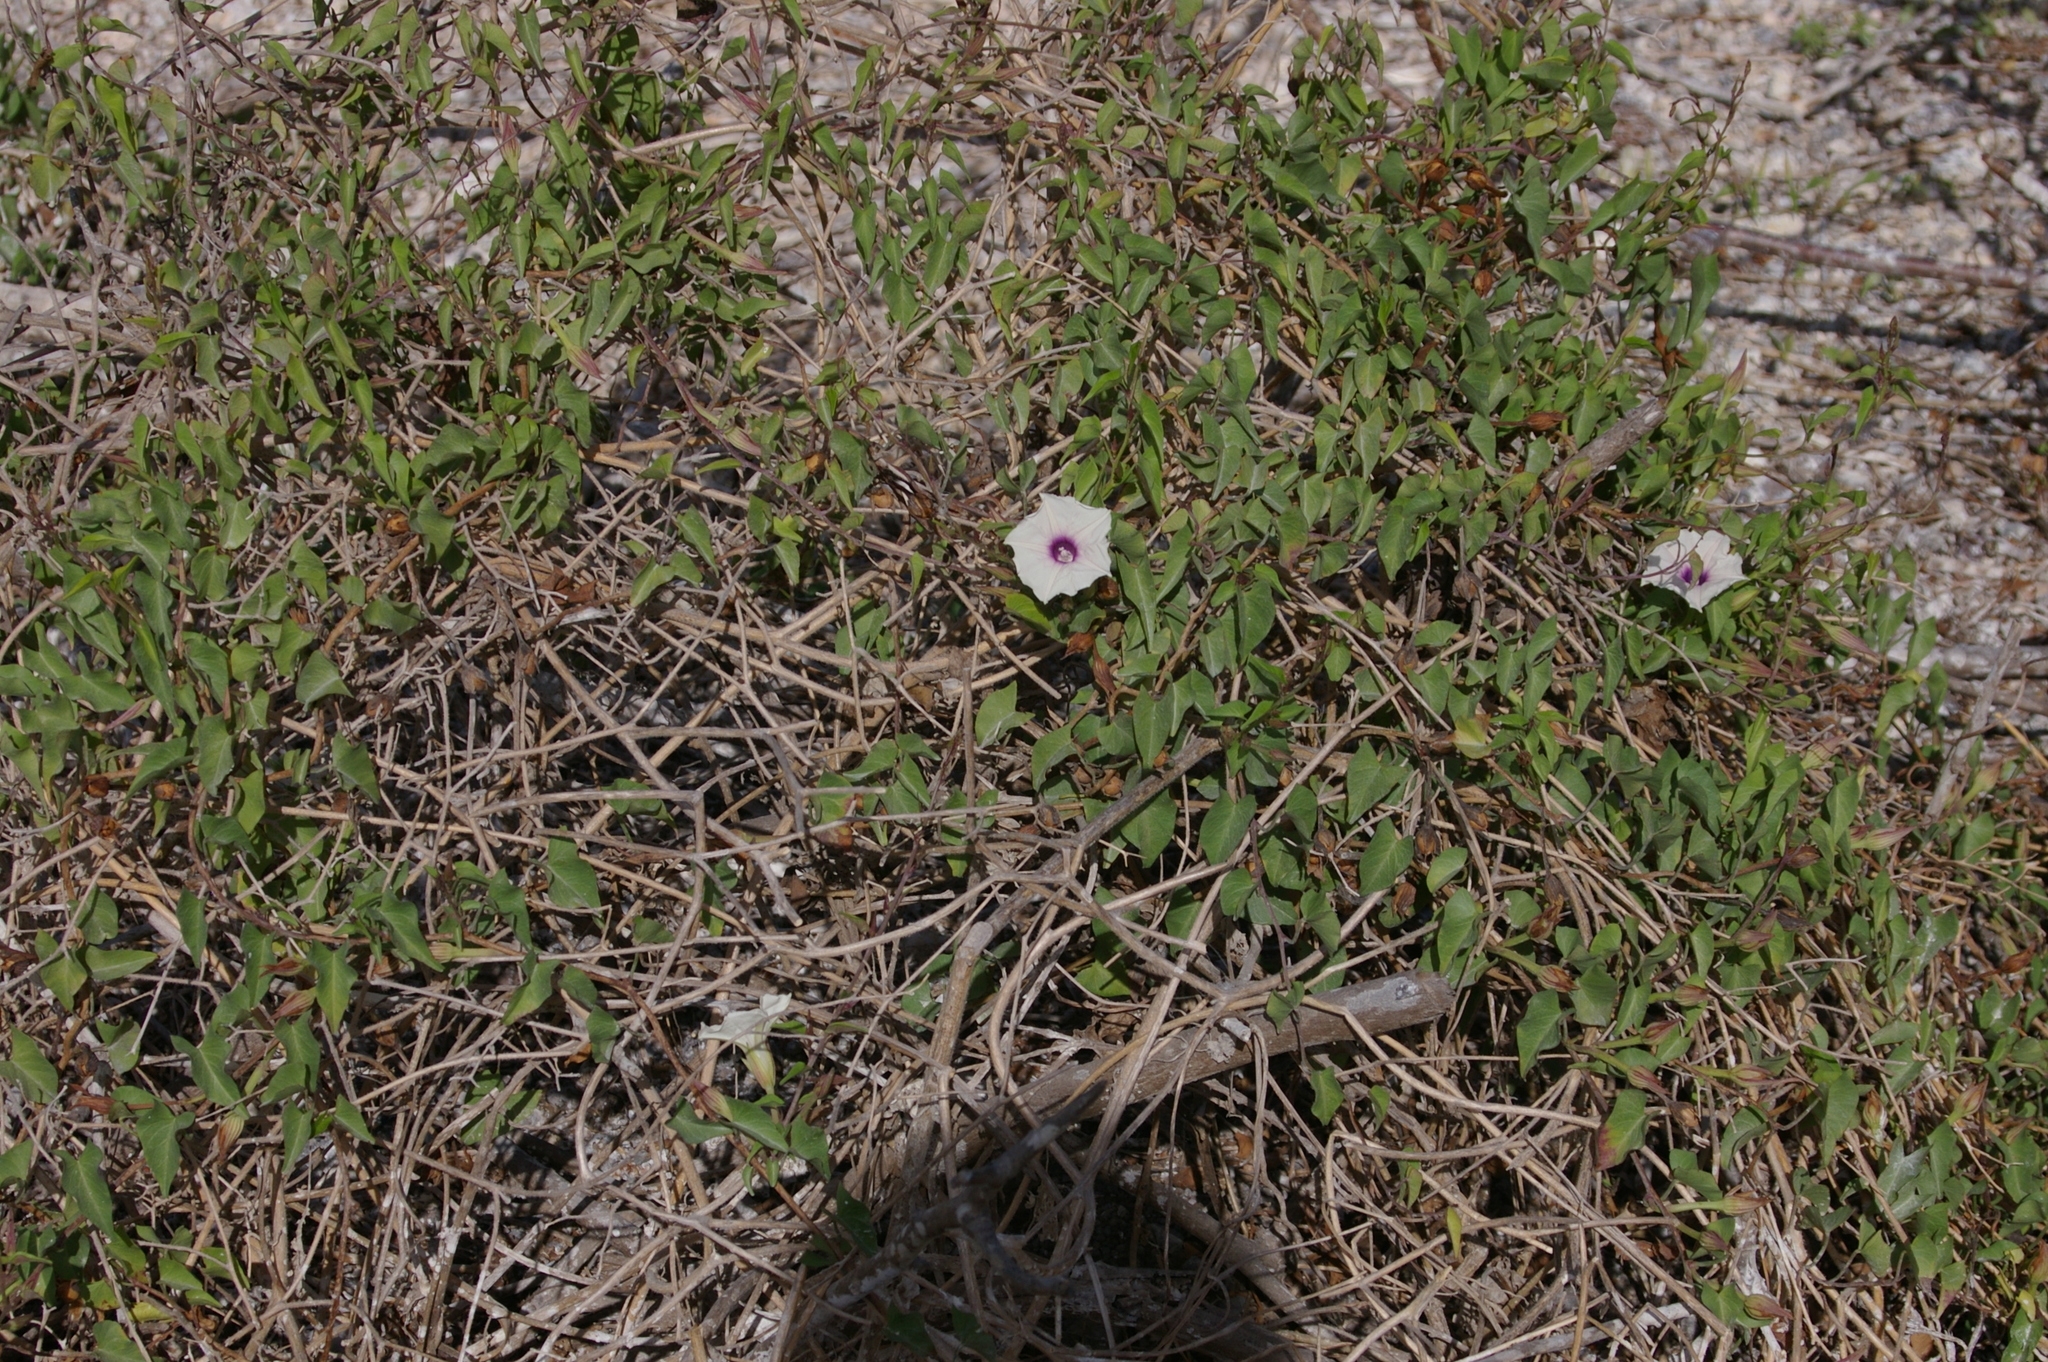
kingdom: Plantae
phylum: Tracheophyta
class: Magnoliopsida
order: Solanales
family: Convolvulaceae
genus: Ipomoea
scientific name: Ipomoea incarnata
